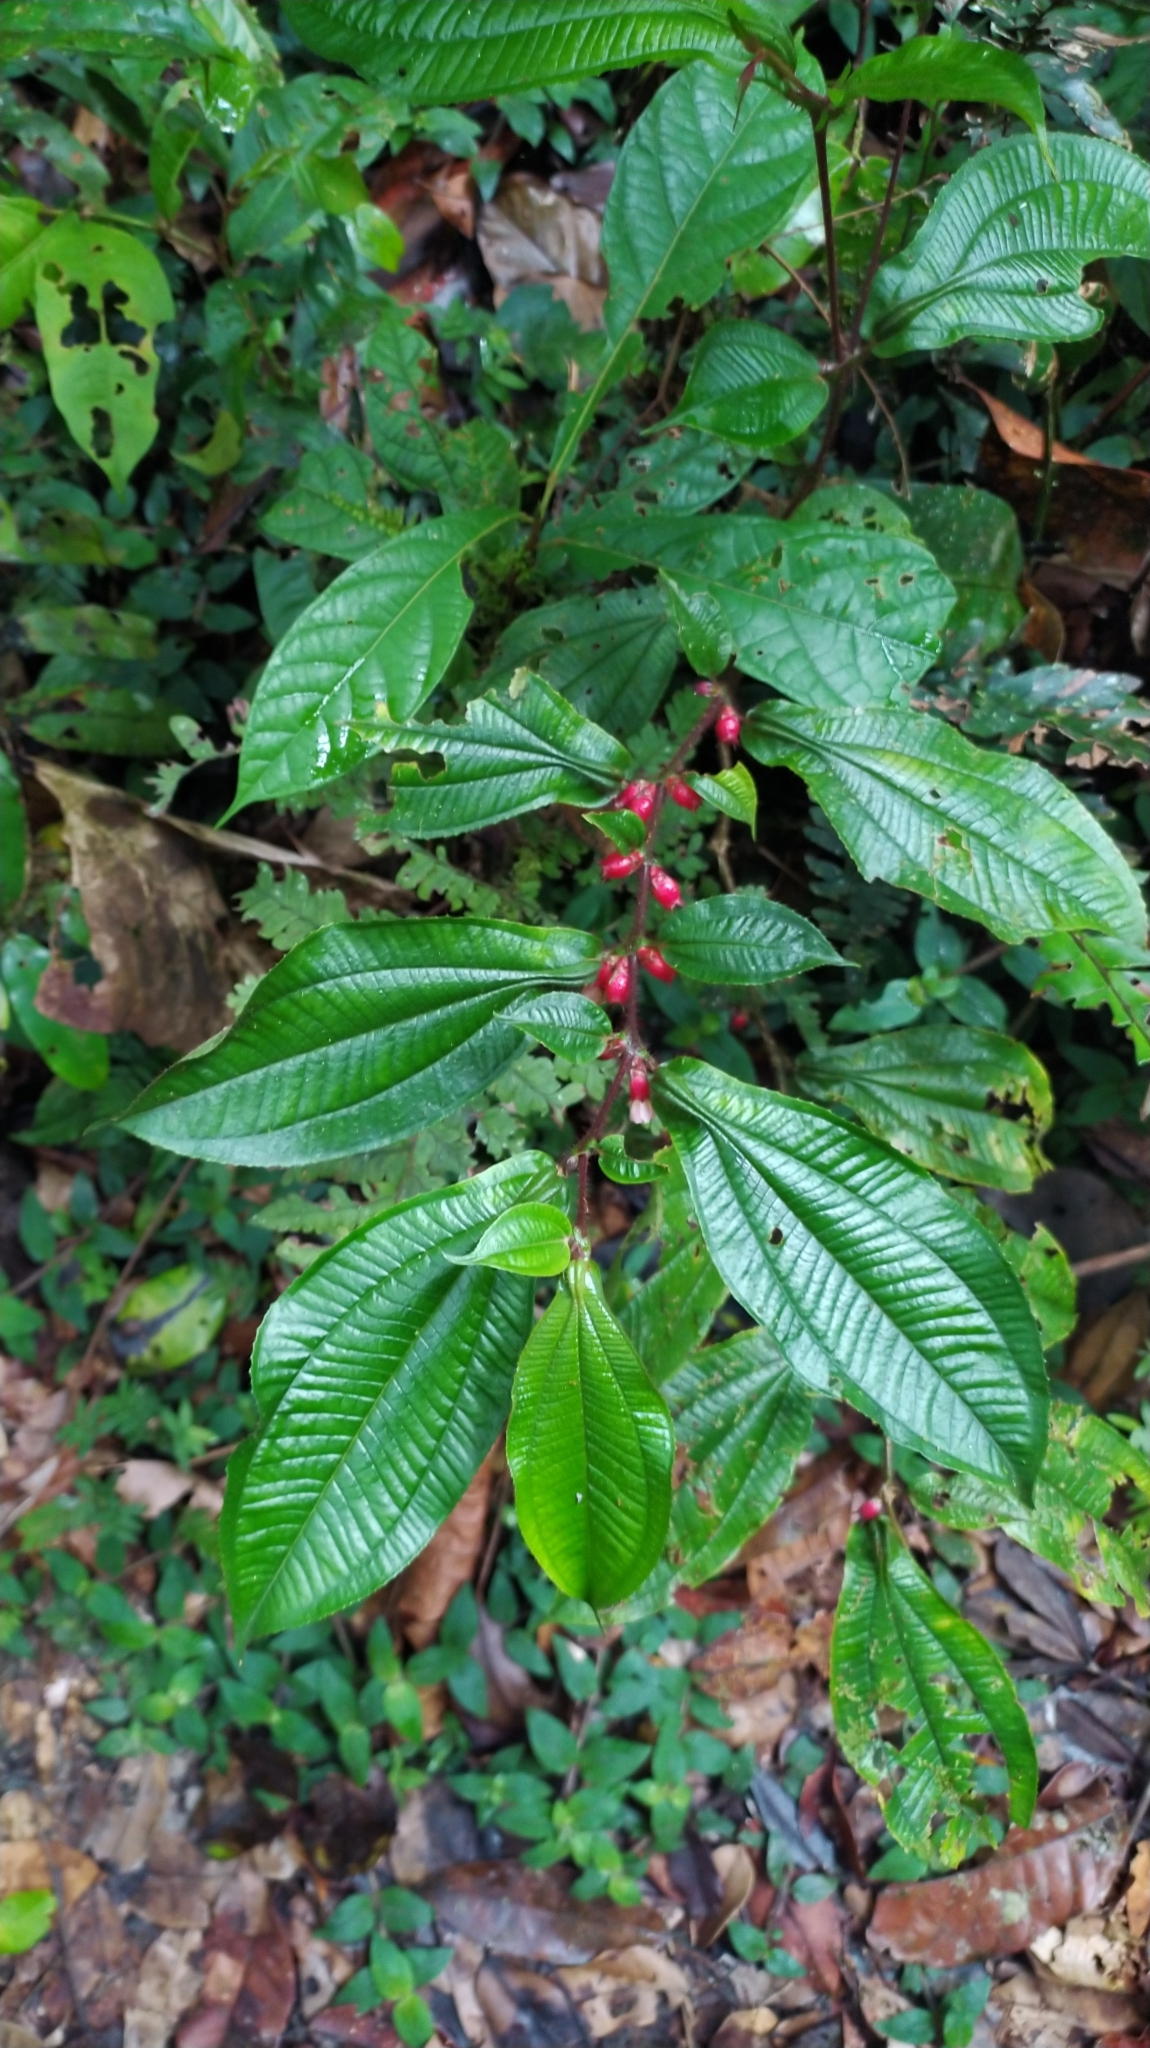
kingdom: Plantae
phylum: Tracheophyta
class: Magnoliopsida
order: Myrtales
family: Melastomataceae
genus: Miconia
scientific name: Miconia mayeta
